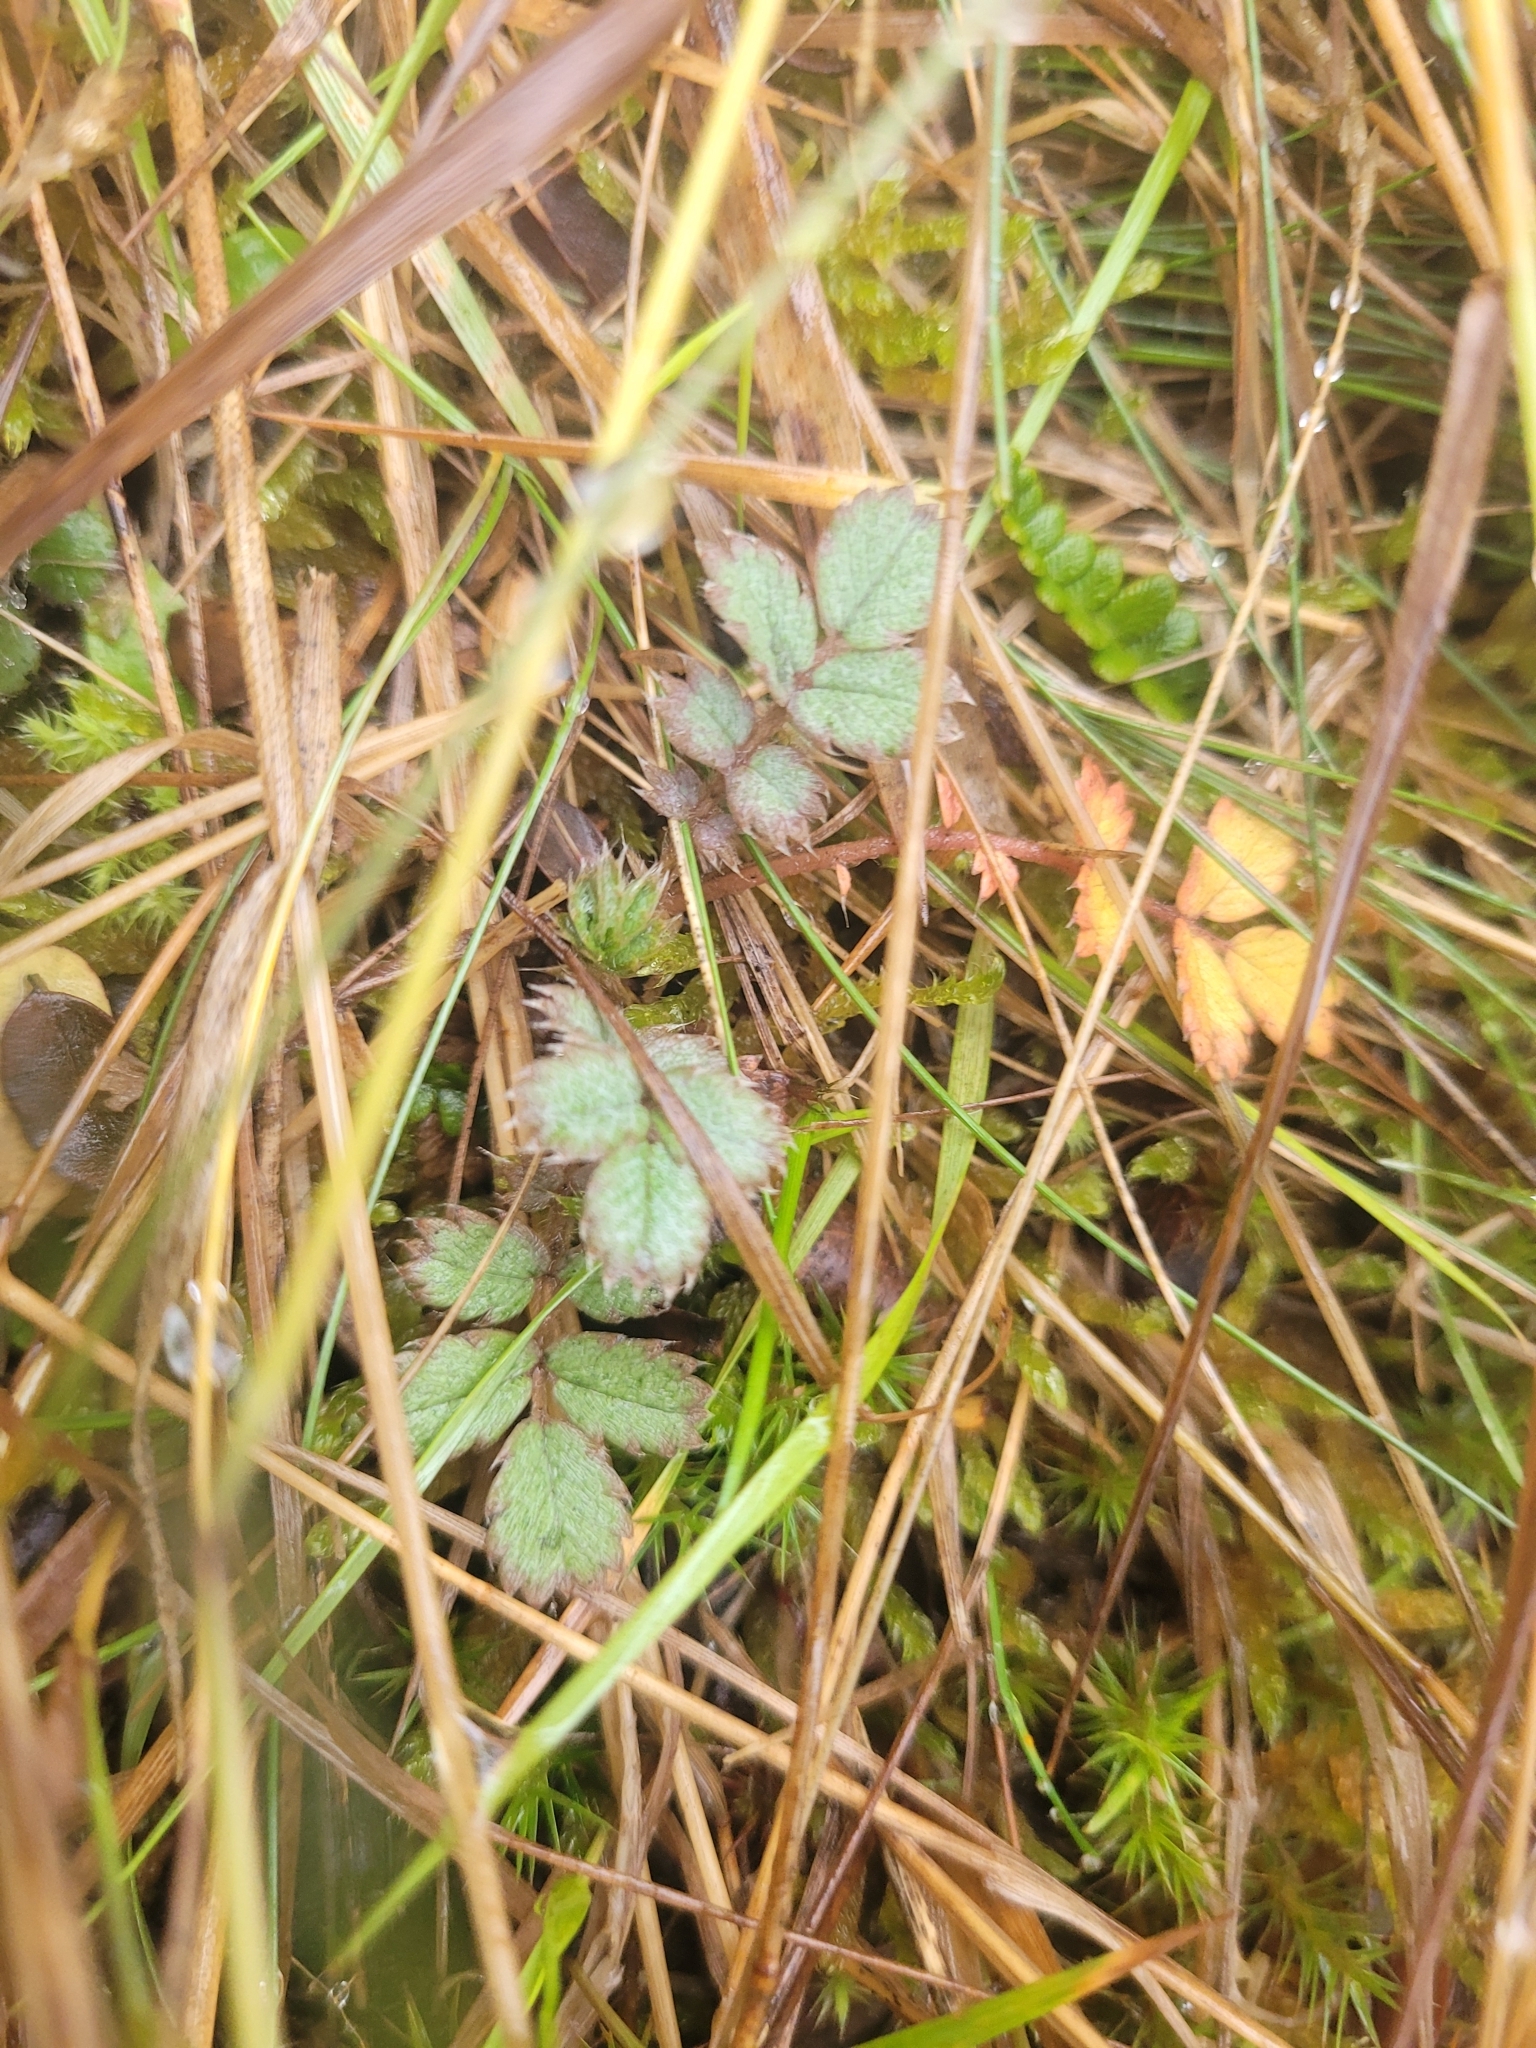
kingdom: Plantae
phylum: Tracheophyta
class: Magnoliopsida
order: Rosales
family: Rosaceae
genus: Acaena
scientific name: Acaena caesiiglauca
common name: Glaucous pirri-pirri-bur
